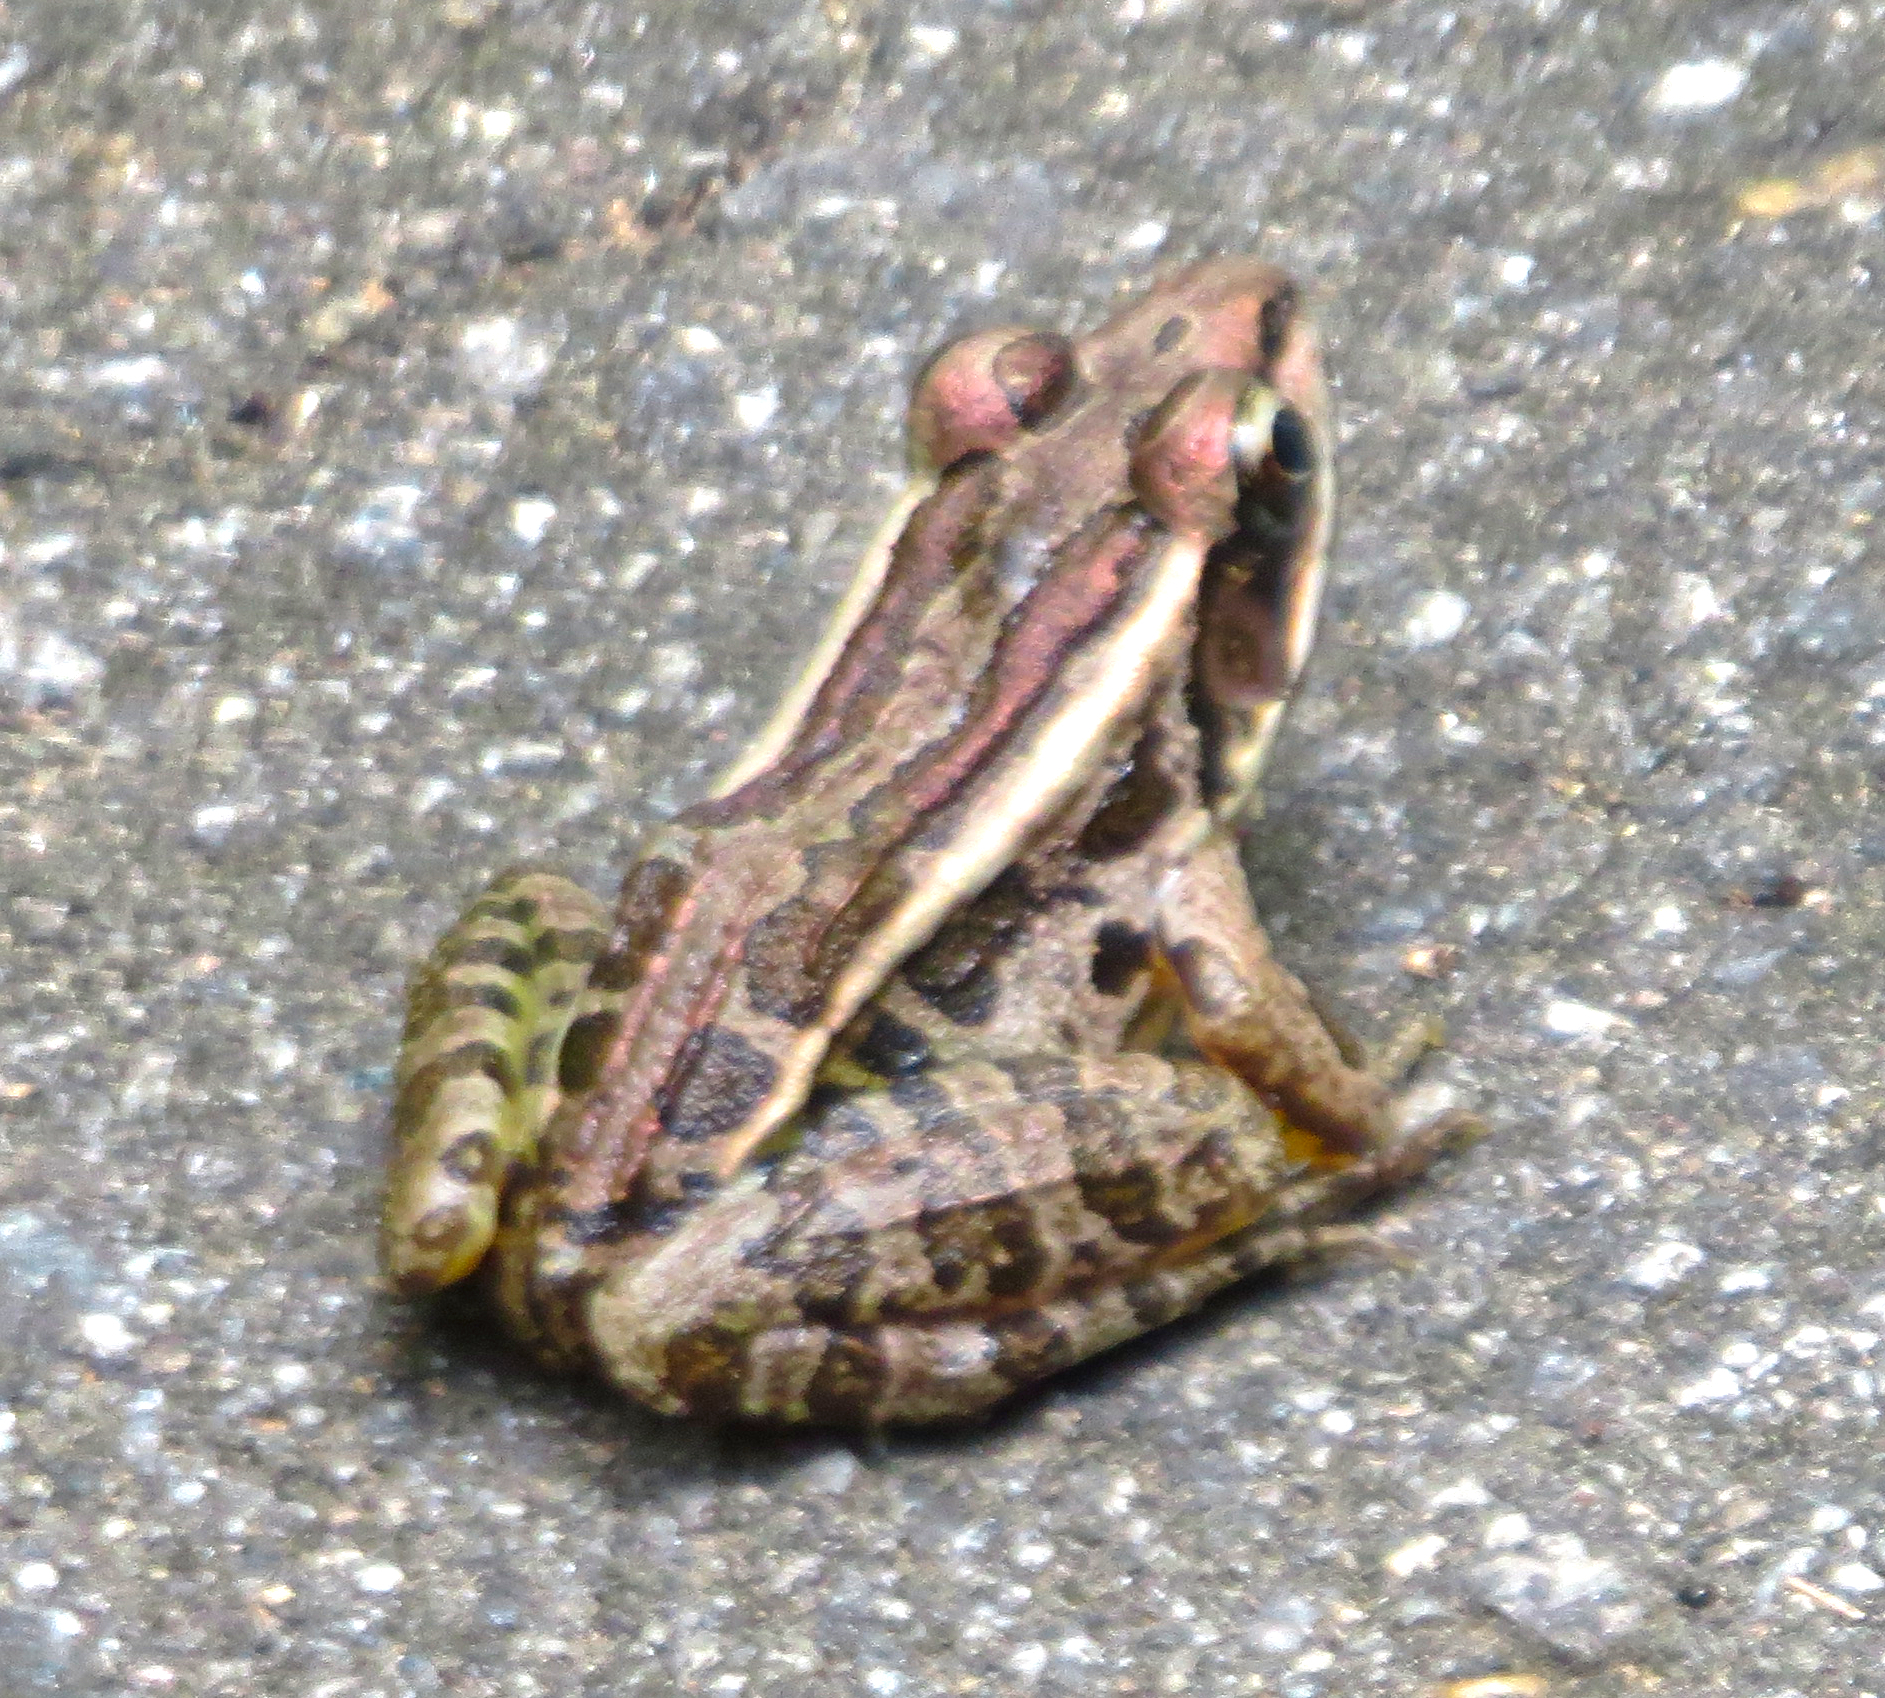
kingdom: Animalia
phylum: Chordata
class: Amphibia
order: Anura
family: Ranidae
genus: Lithobates
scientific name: Lithobates palustris
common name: Pickerel frog
